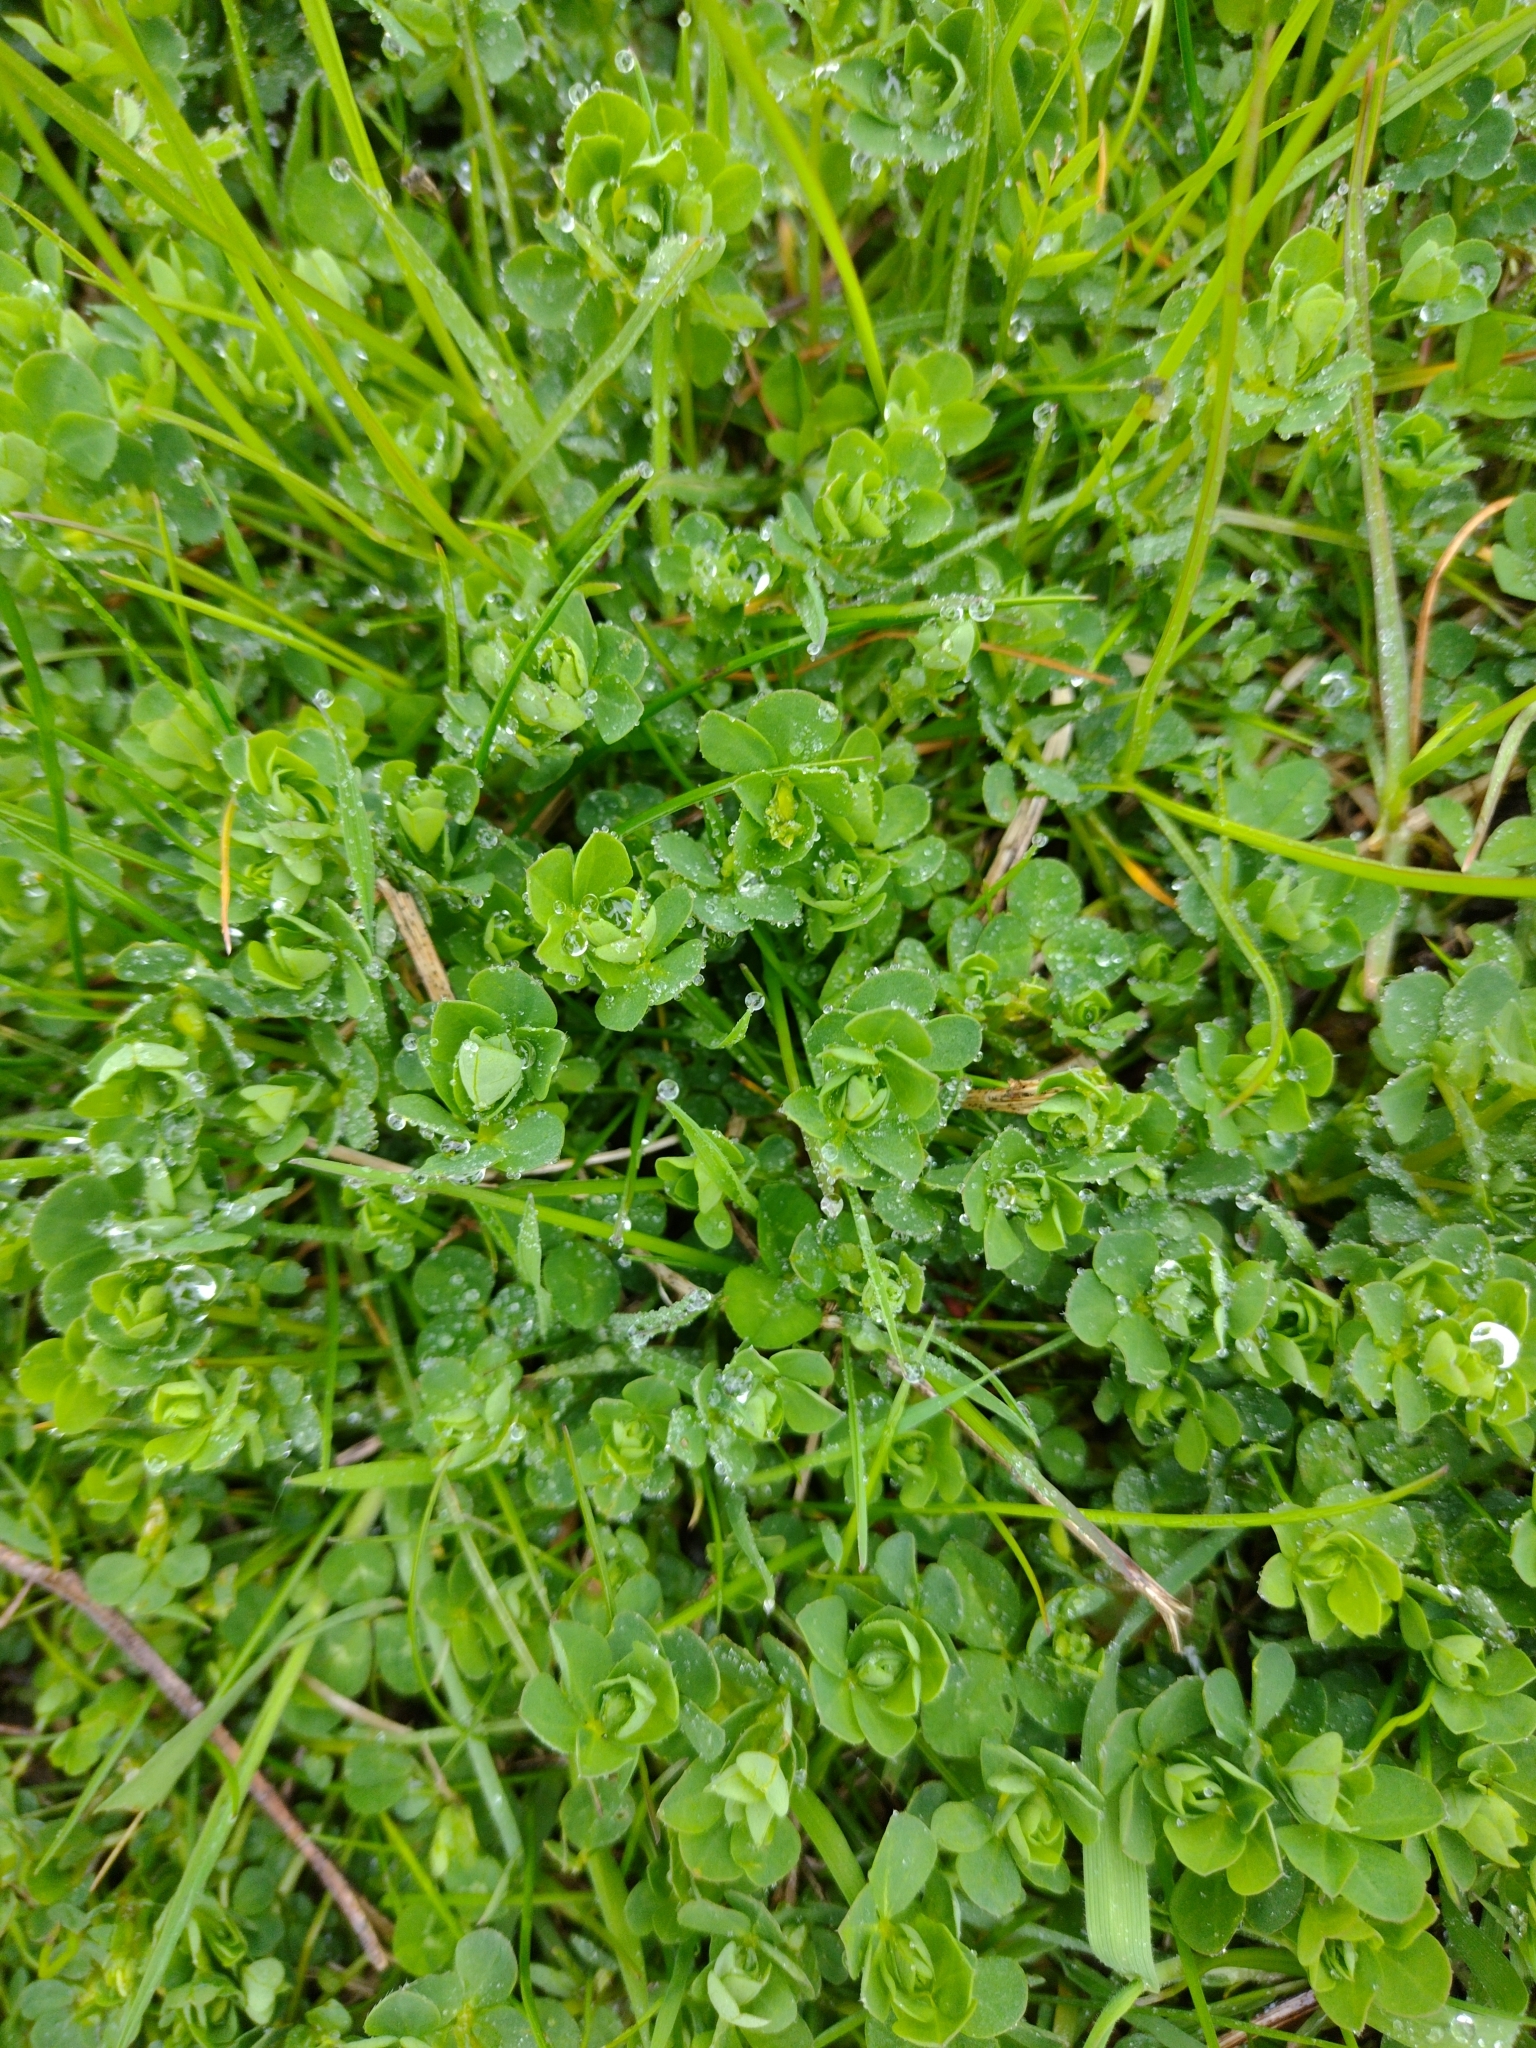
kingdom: Plantae
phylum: Tracheophyta
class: Magnoliopsida
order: Fabales
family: Fabaceae
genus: Lotus
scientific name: Lotus corniculatus
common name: Common bird's-foot-trefoil
